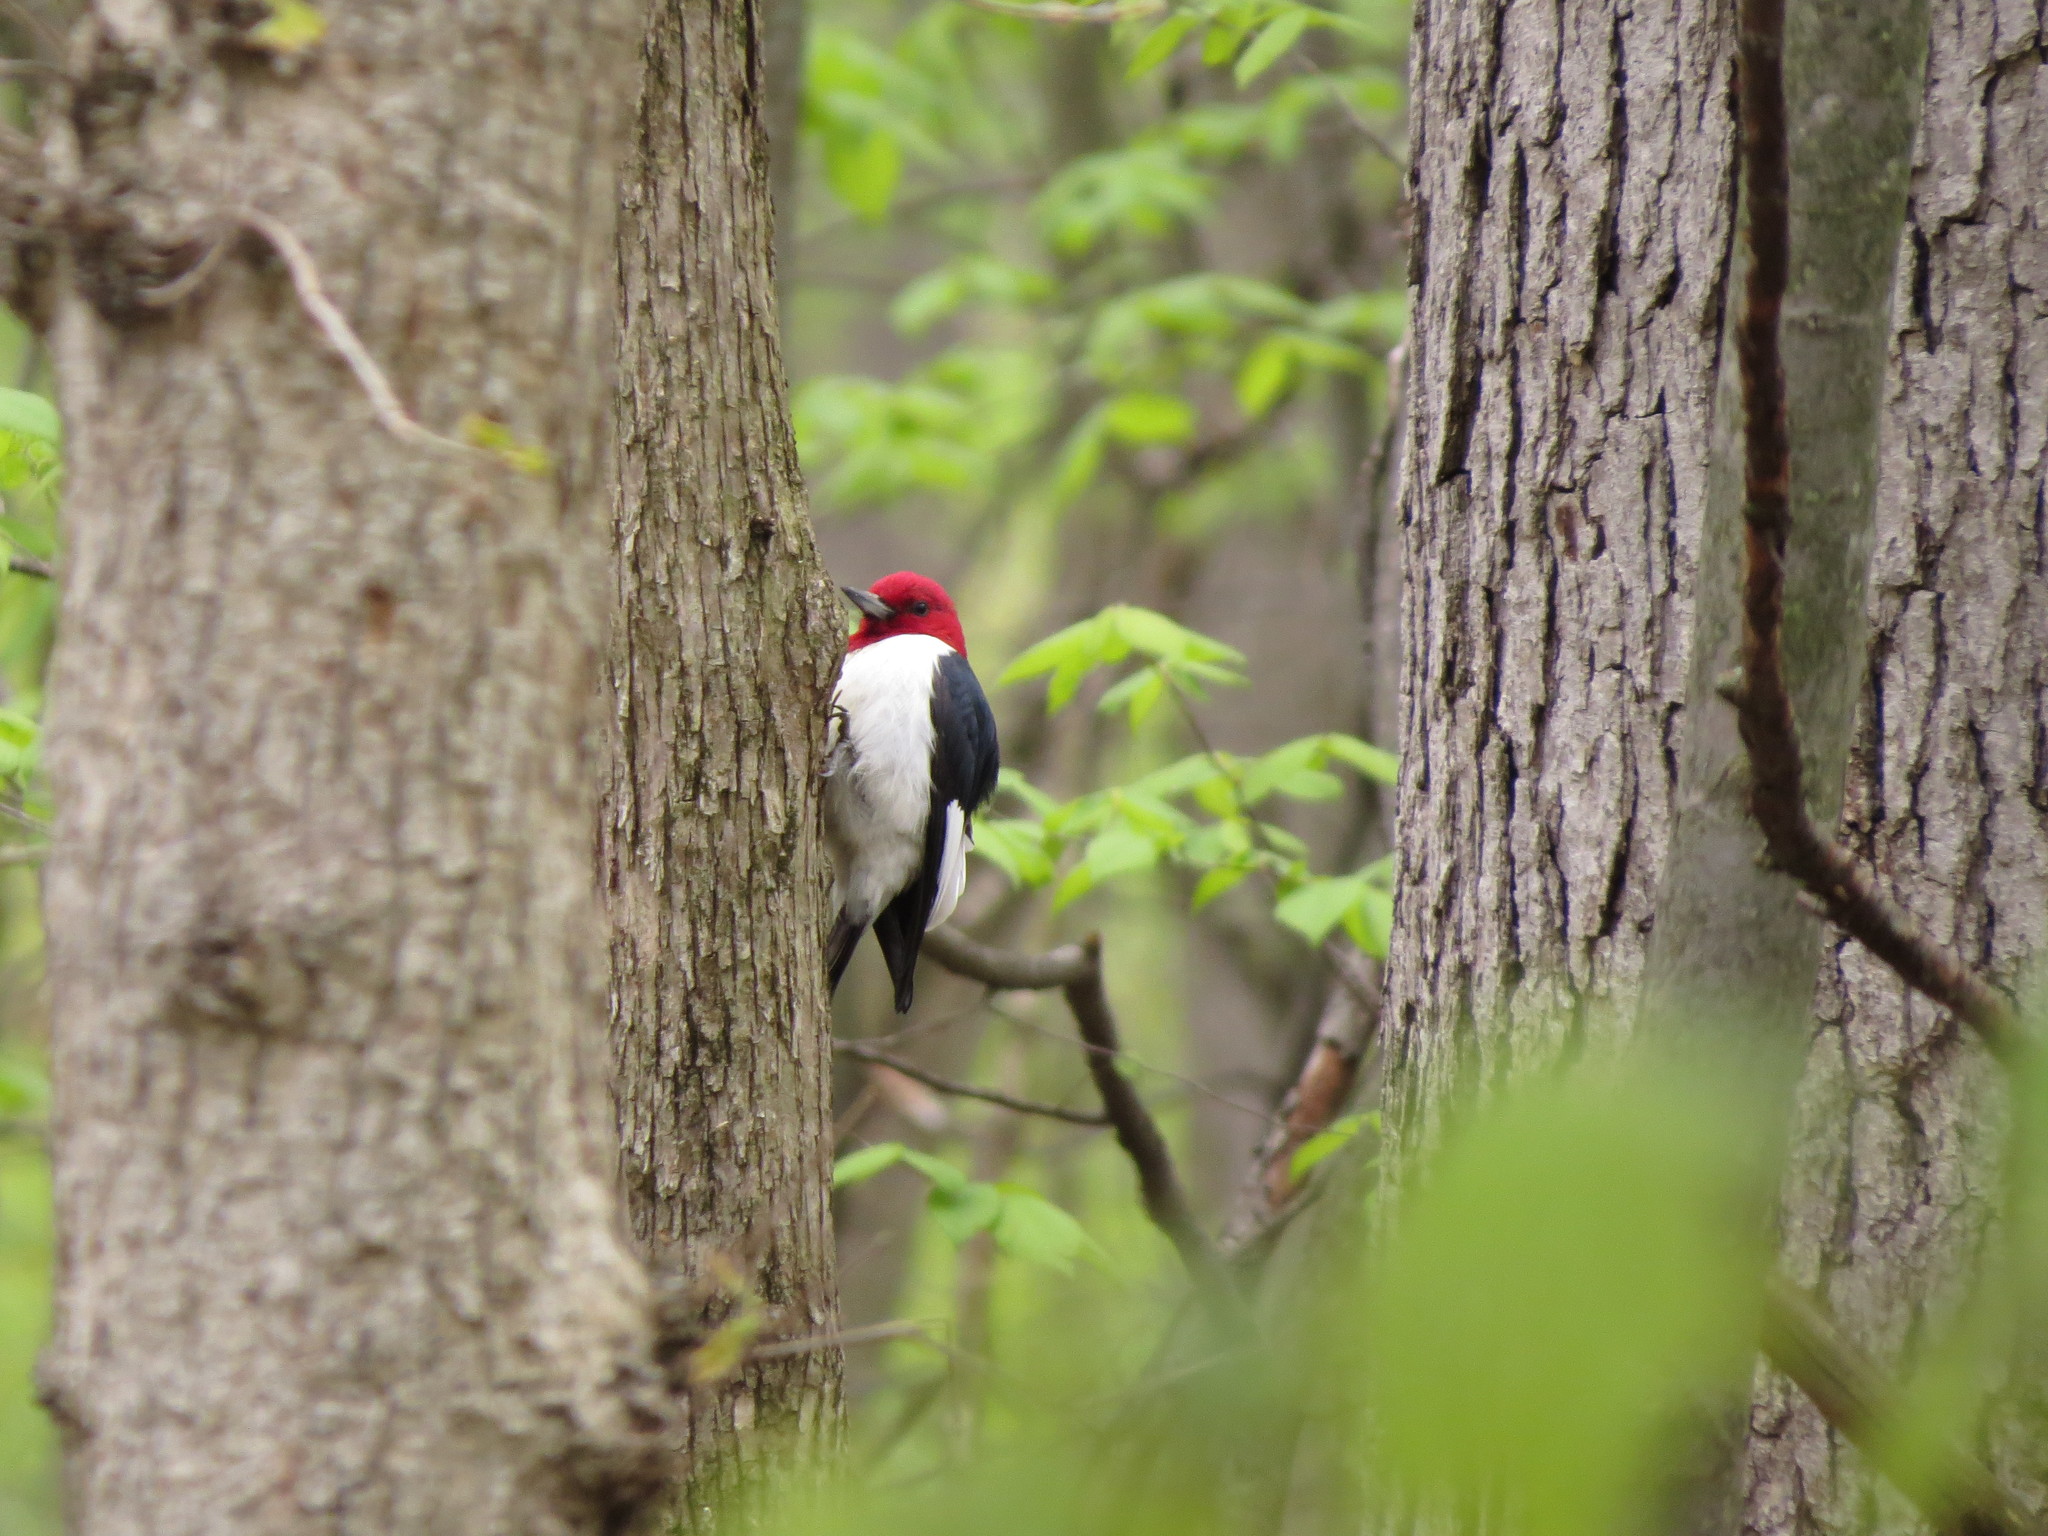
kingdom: Animalia
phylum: Chordata
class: Aves
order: Piciformes
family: Picidae
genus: Melanerpes
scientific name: Melanerpes erythrocephalus
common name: Red-headed woodpecker
